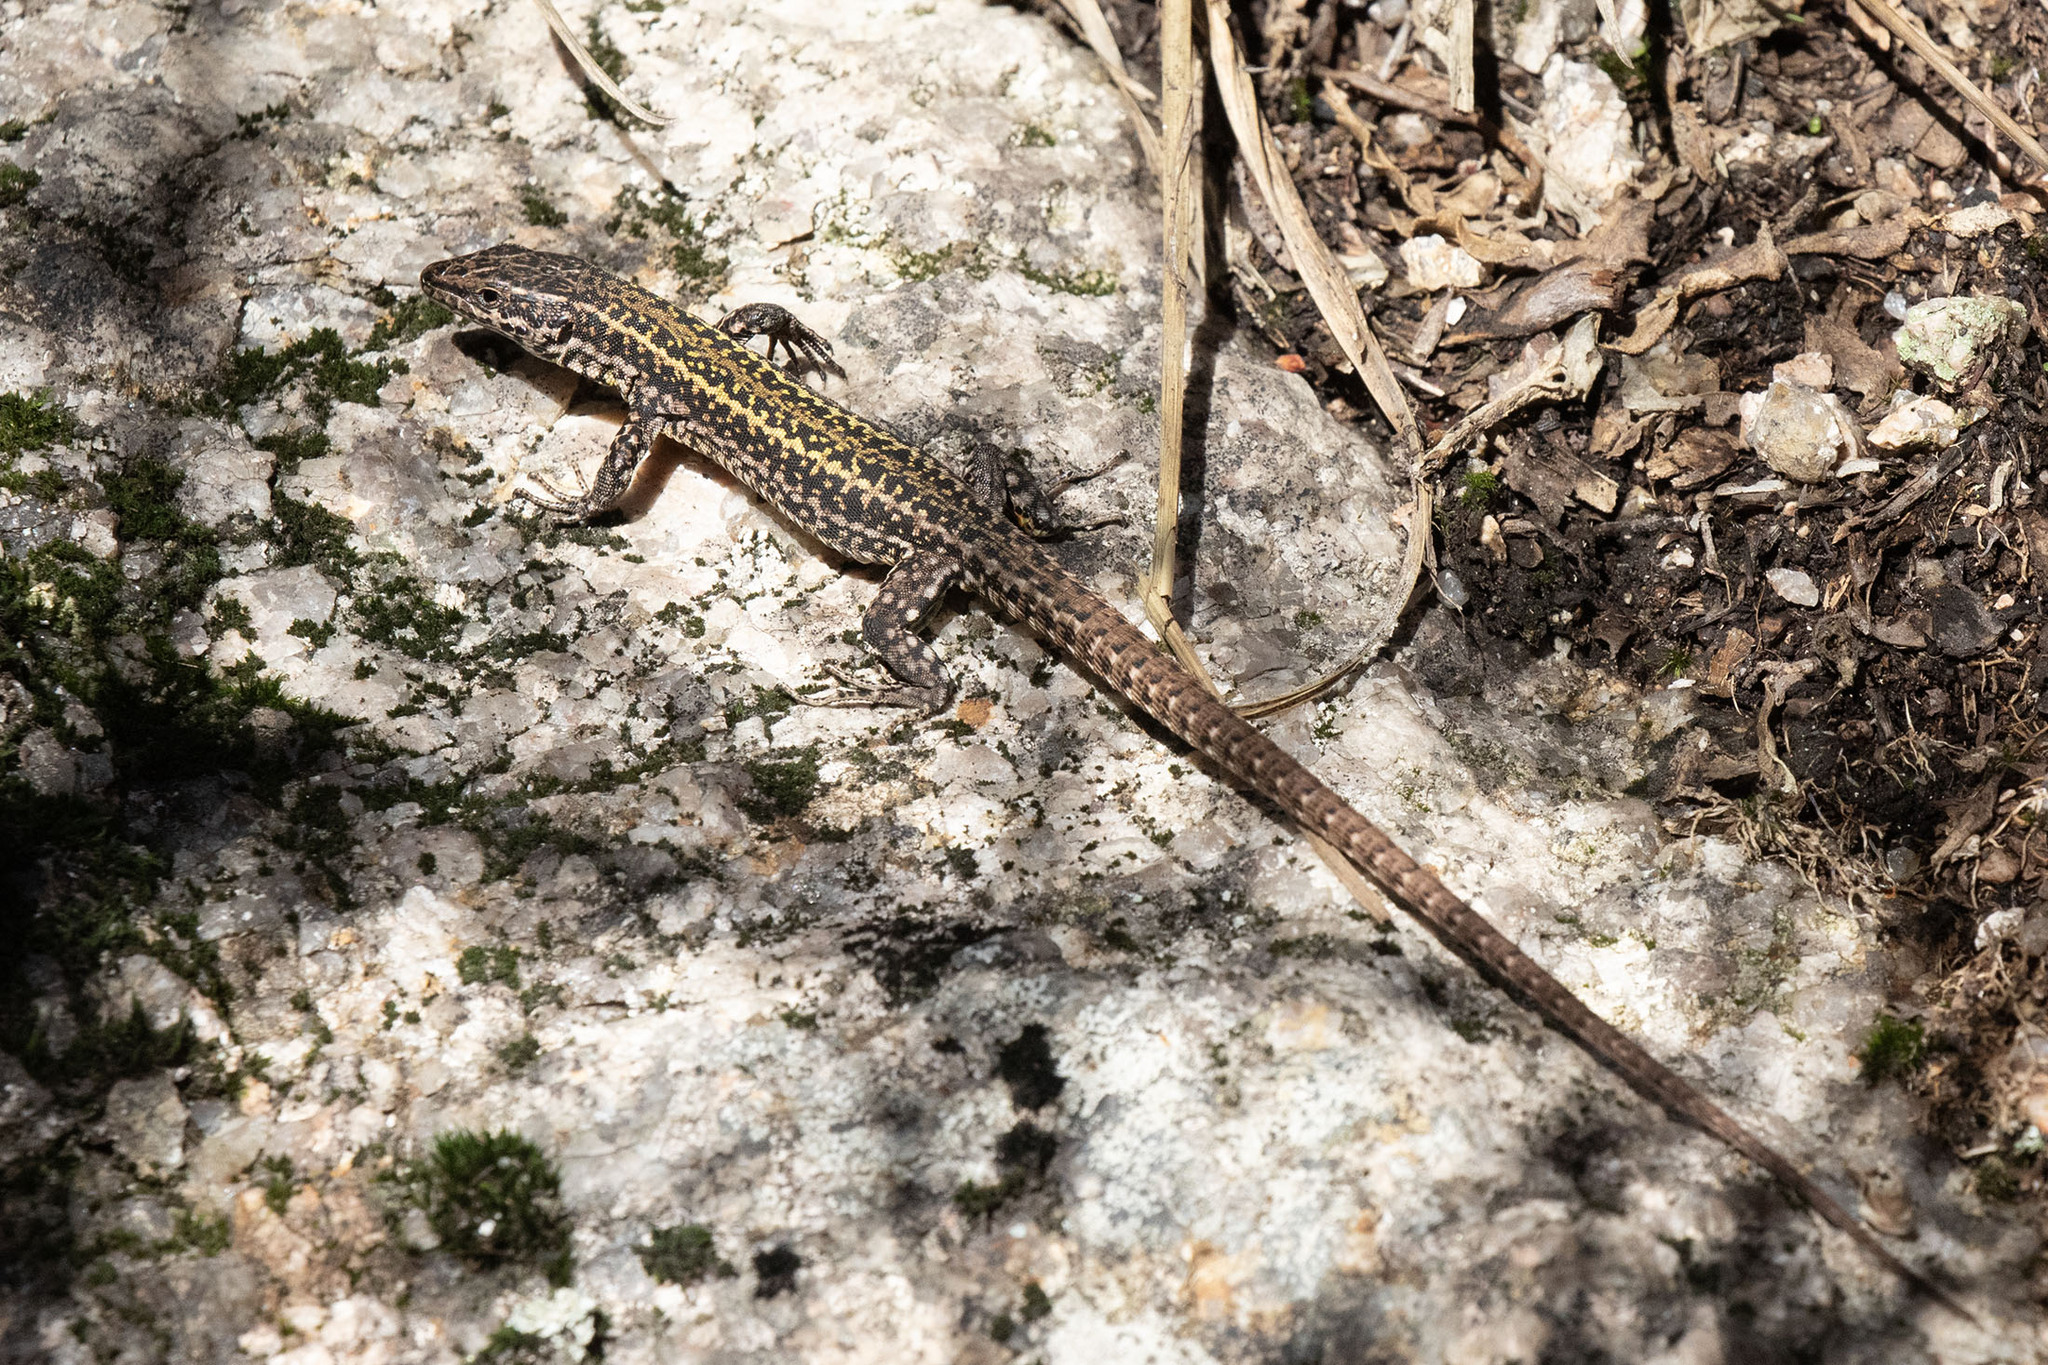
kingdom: Animalia
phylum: Chordata
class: Squamata
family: Lacertidae
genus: Podarcis
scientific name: Podarcis bocagei
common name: Bocage's wall lizard
